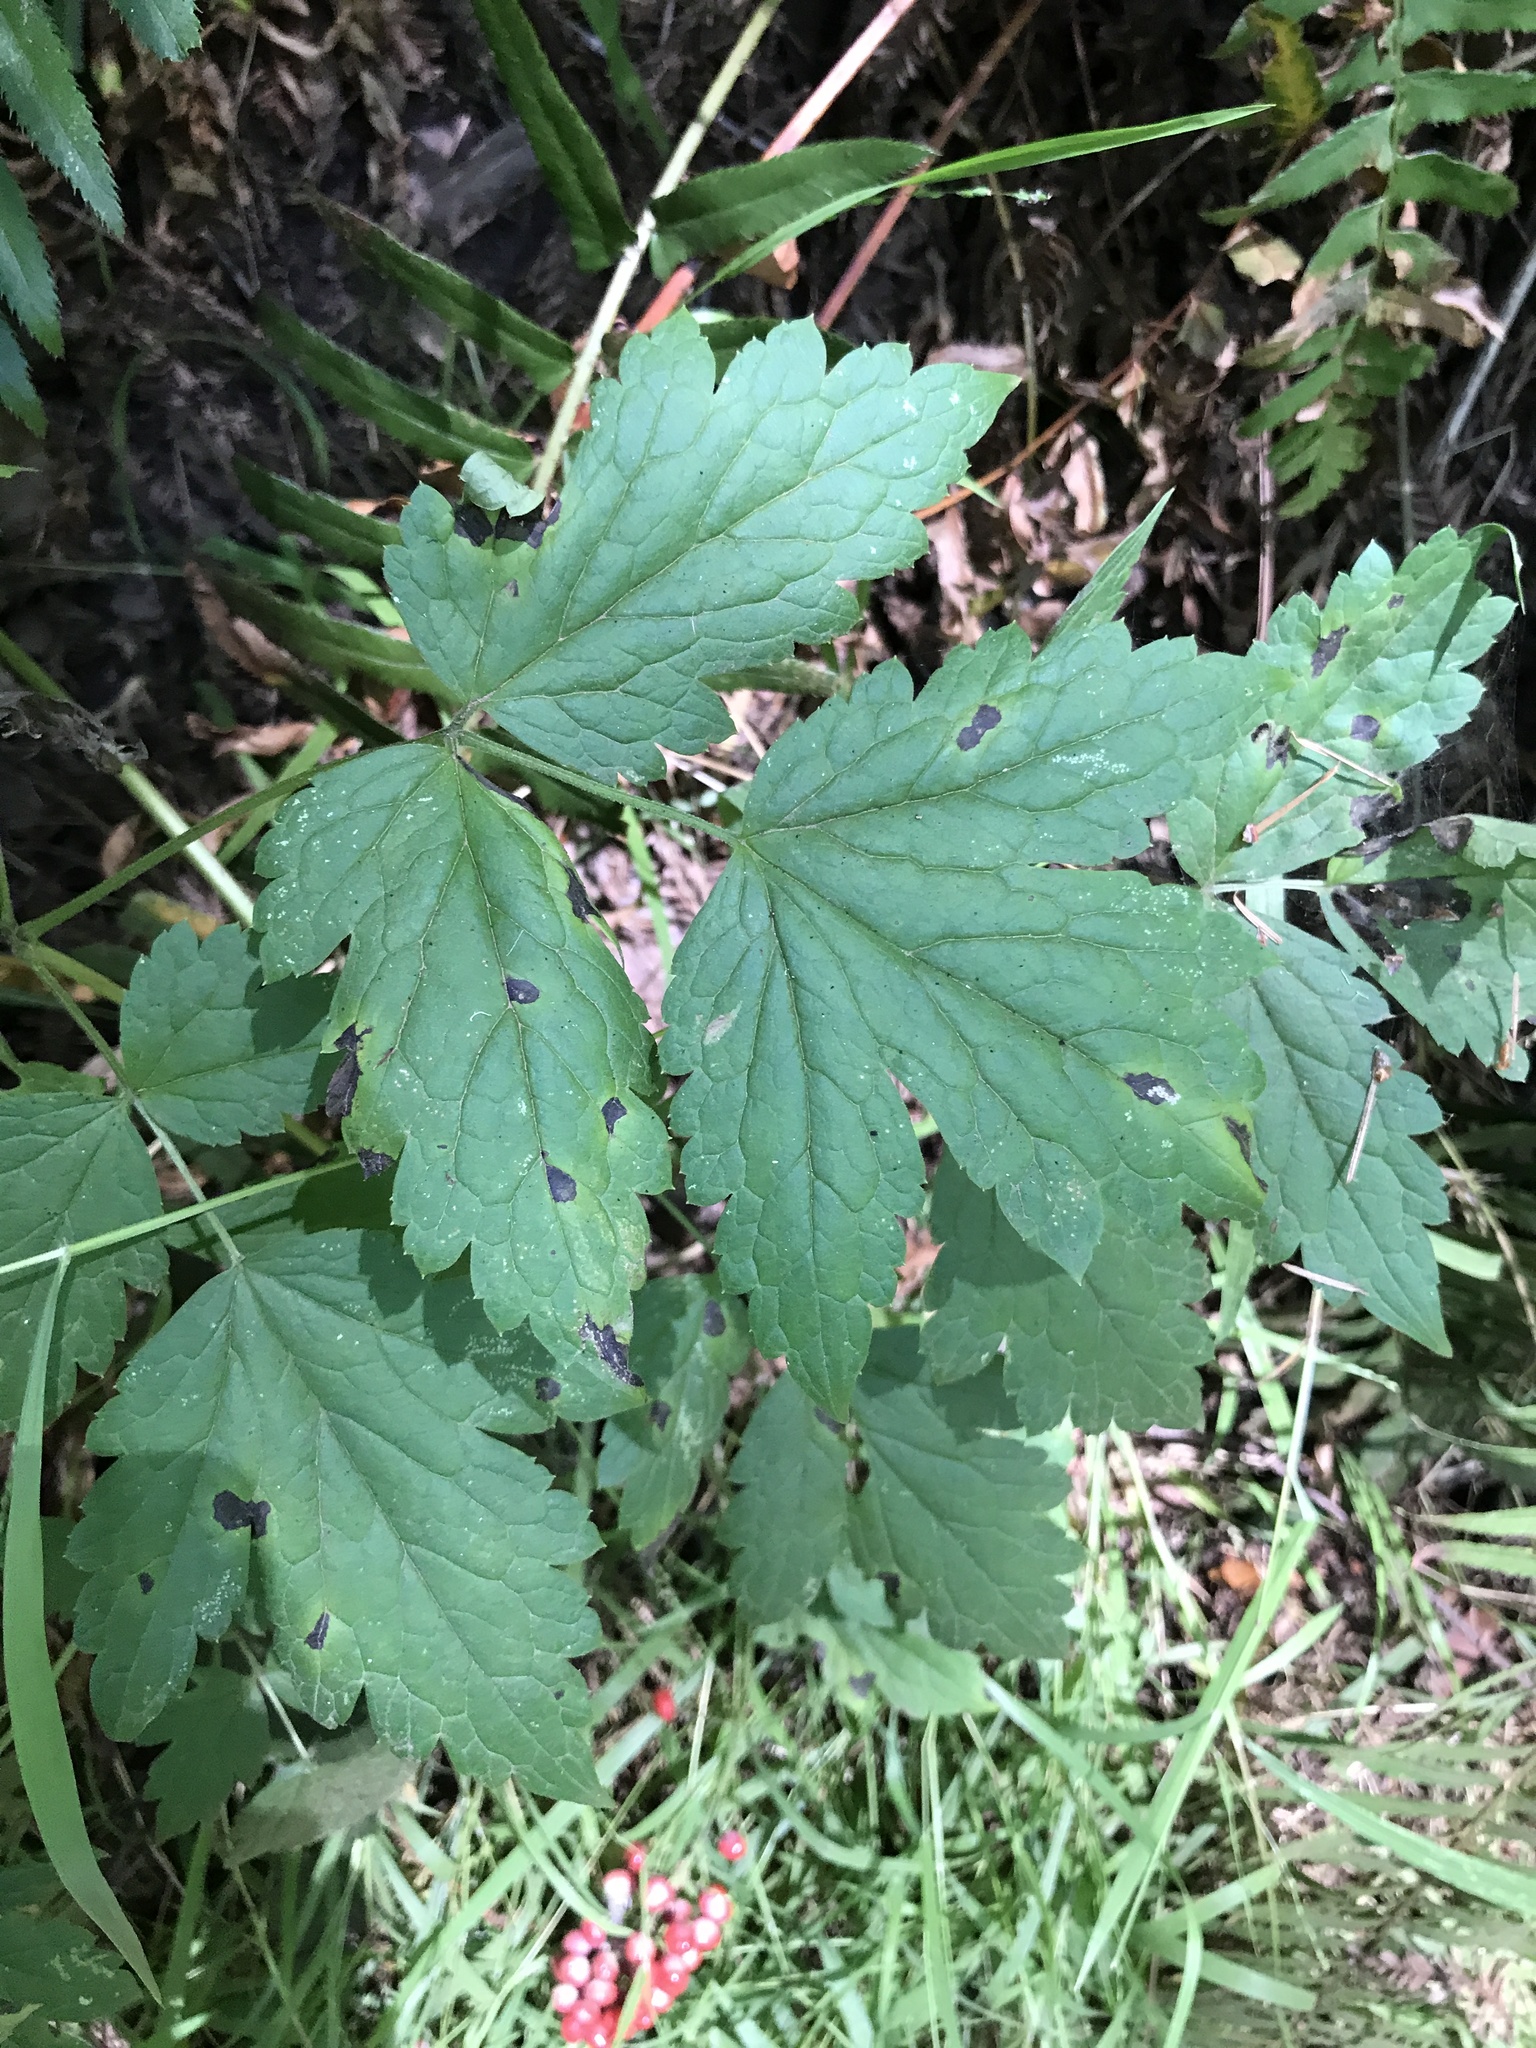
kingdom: Plantae
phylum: Tracheophyta
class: Magnoliopsida
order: Ranunculales
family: Ranunculaceae
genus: Actaea
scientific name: Actaea rubra
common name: Red baneberry
